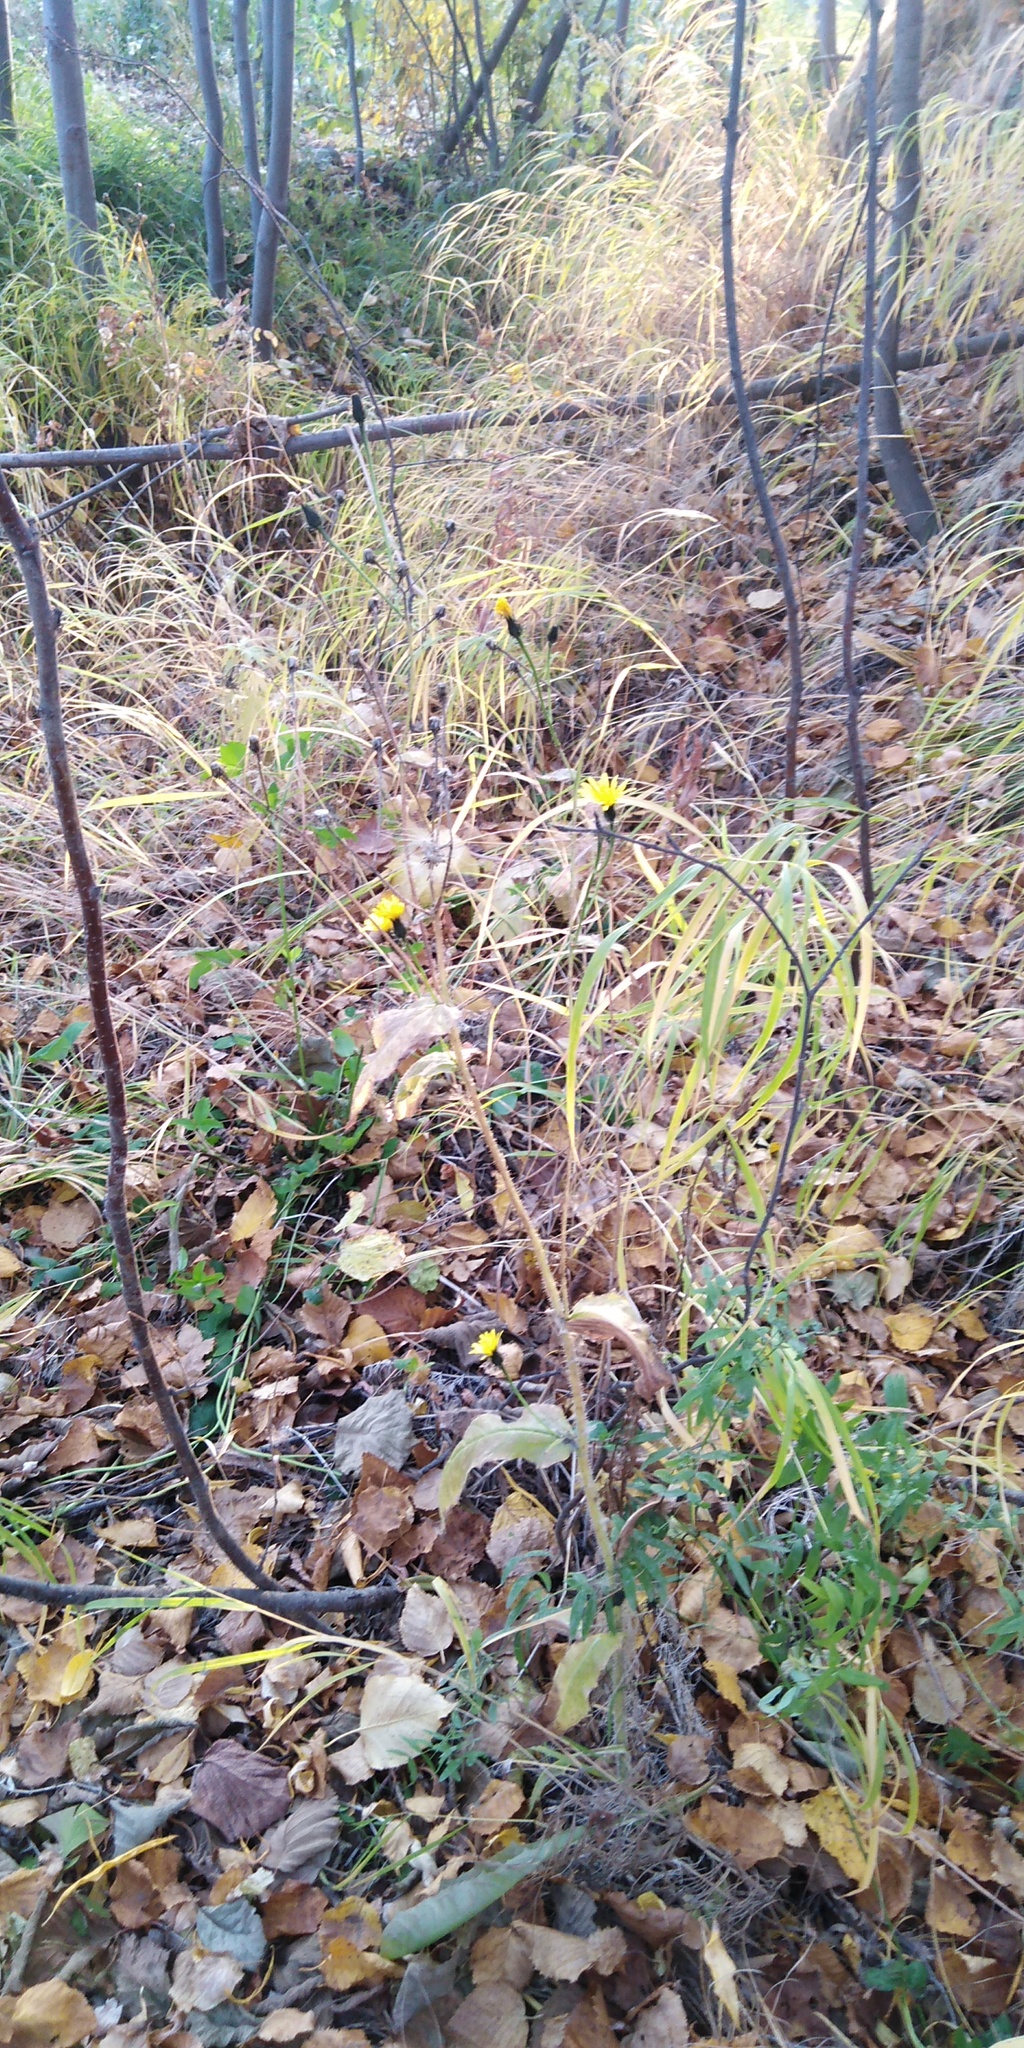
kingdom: Plantae
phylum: Tracheophyta
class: Magnoliopsida
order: Asterales
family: Asteraceae
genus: Picris
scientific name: Picris japonica
